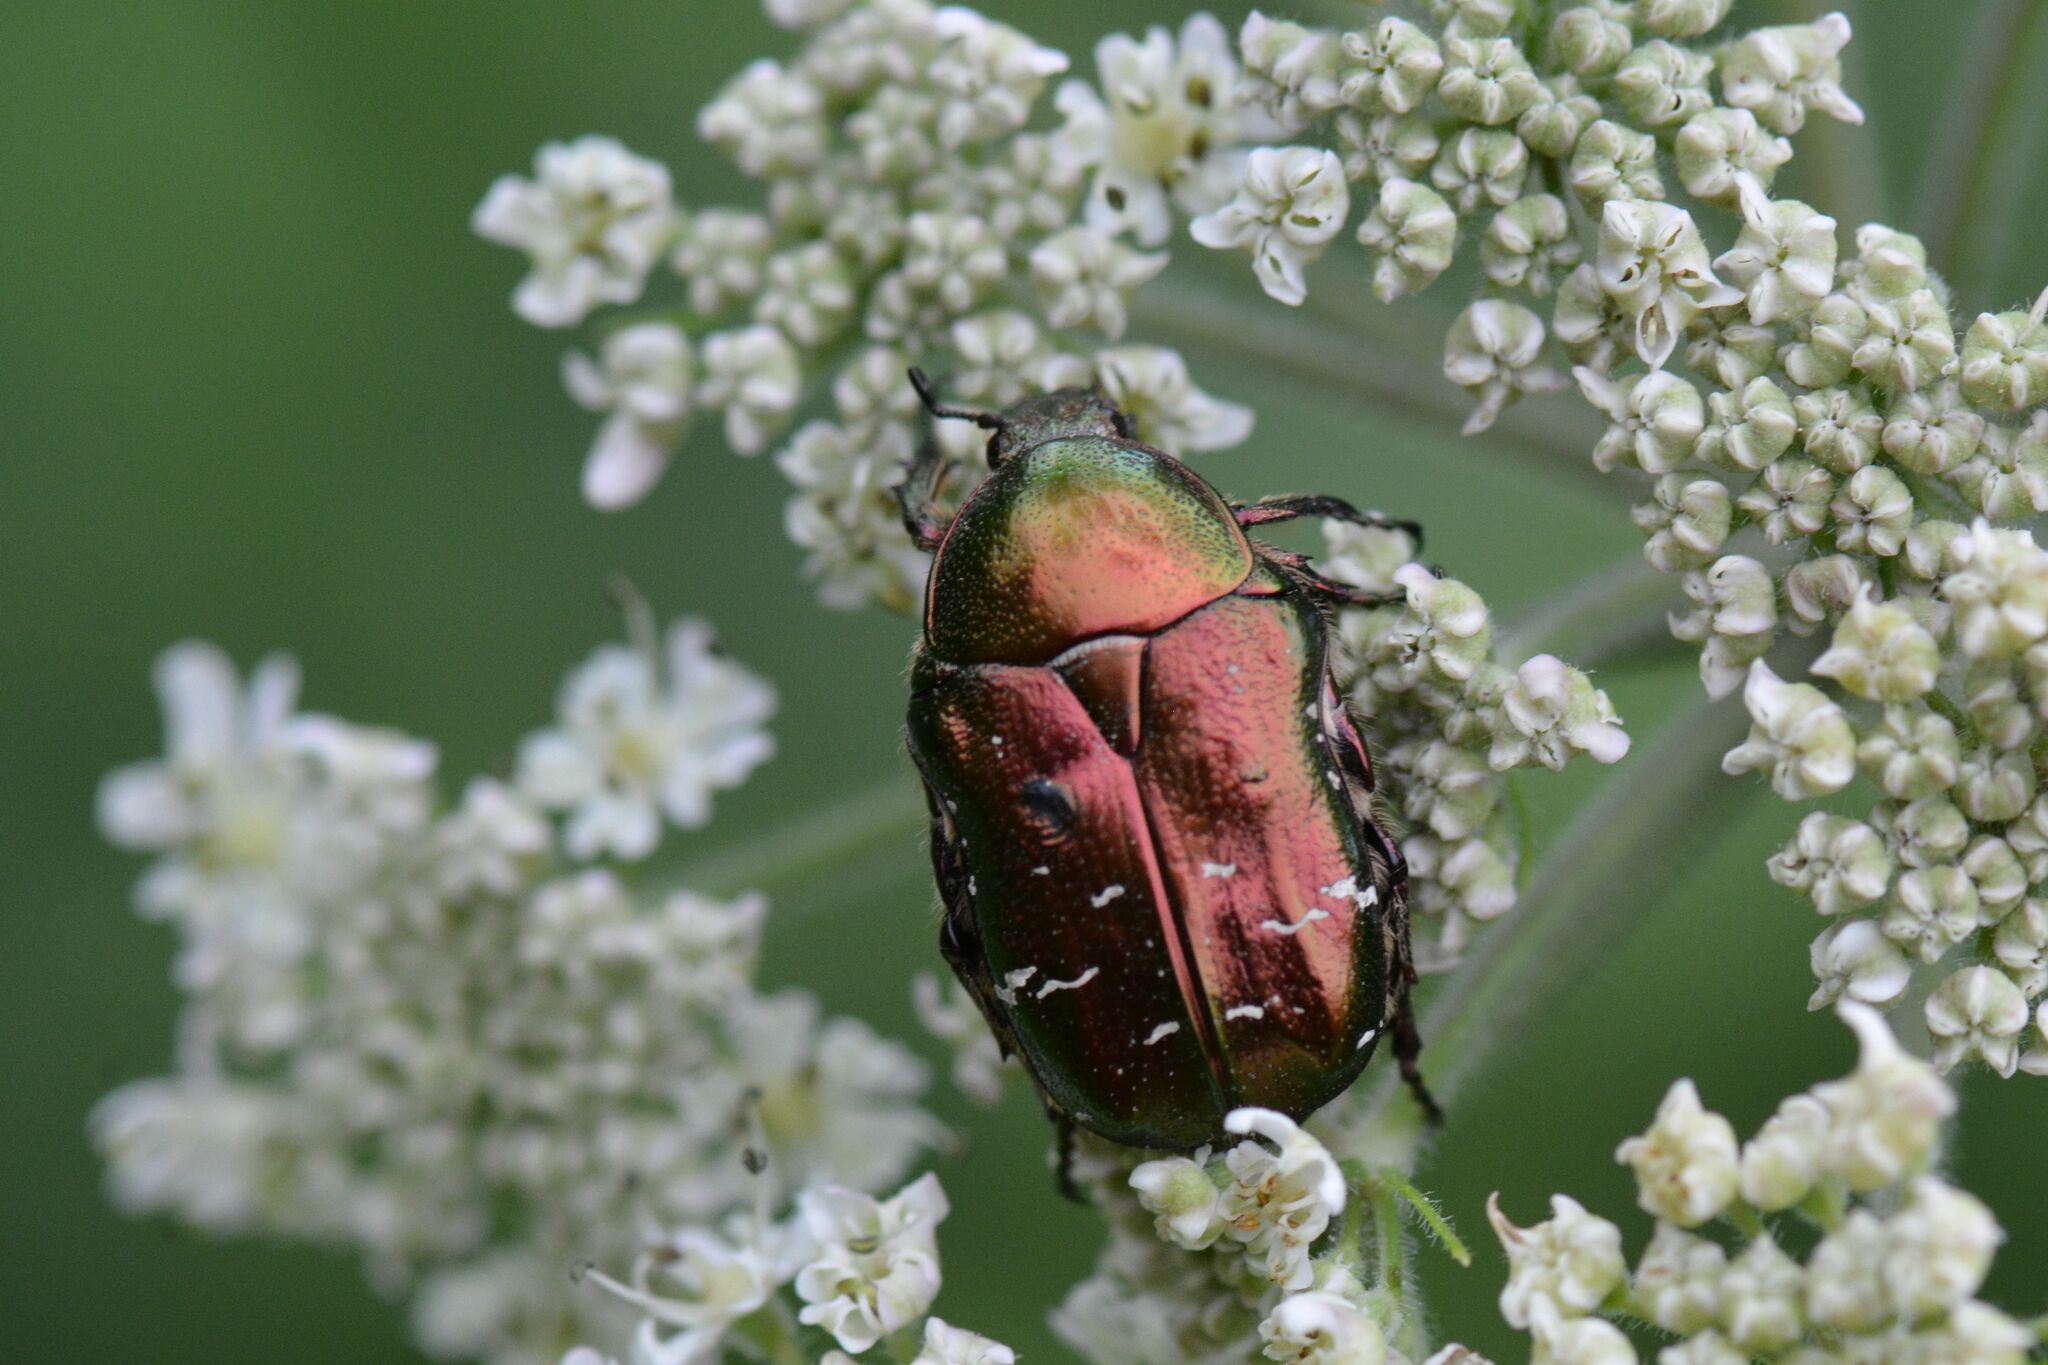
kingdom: Animalia
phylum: Arthropoda
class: Insecta
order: Coleoptera
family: Scarabaeidae
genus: Cetonia
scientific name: Cetonia aurata
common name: Rose chafer
